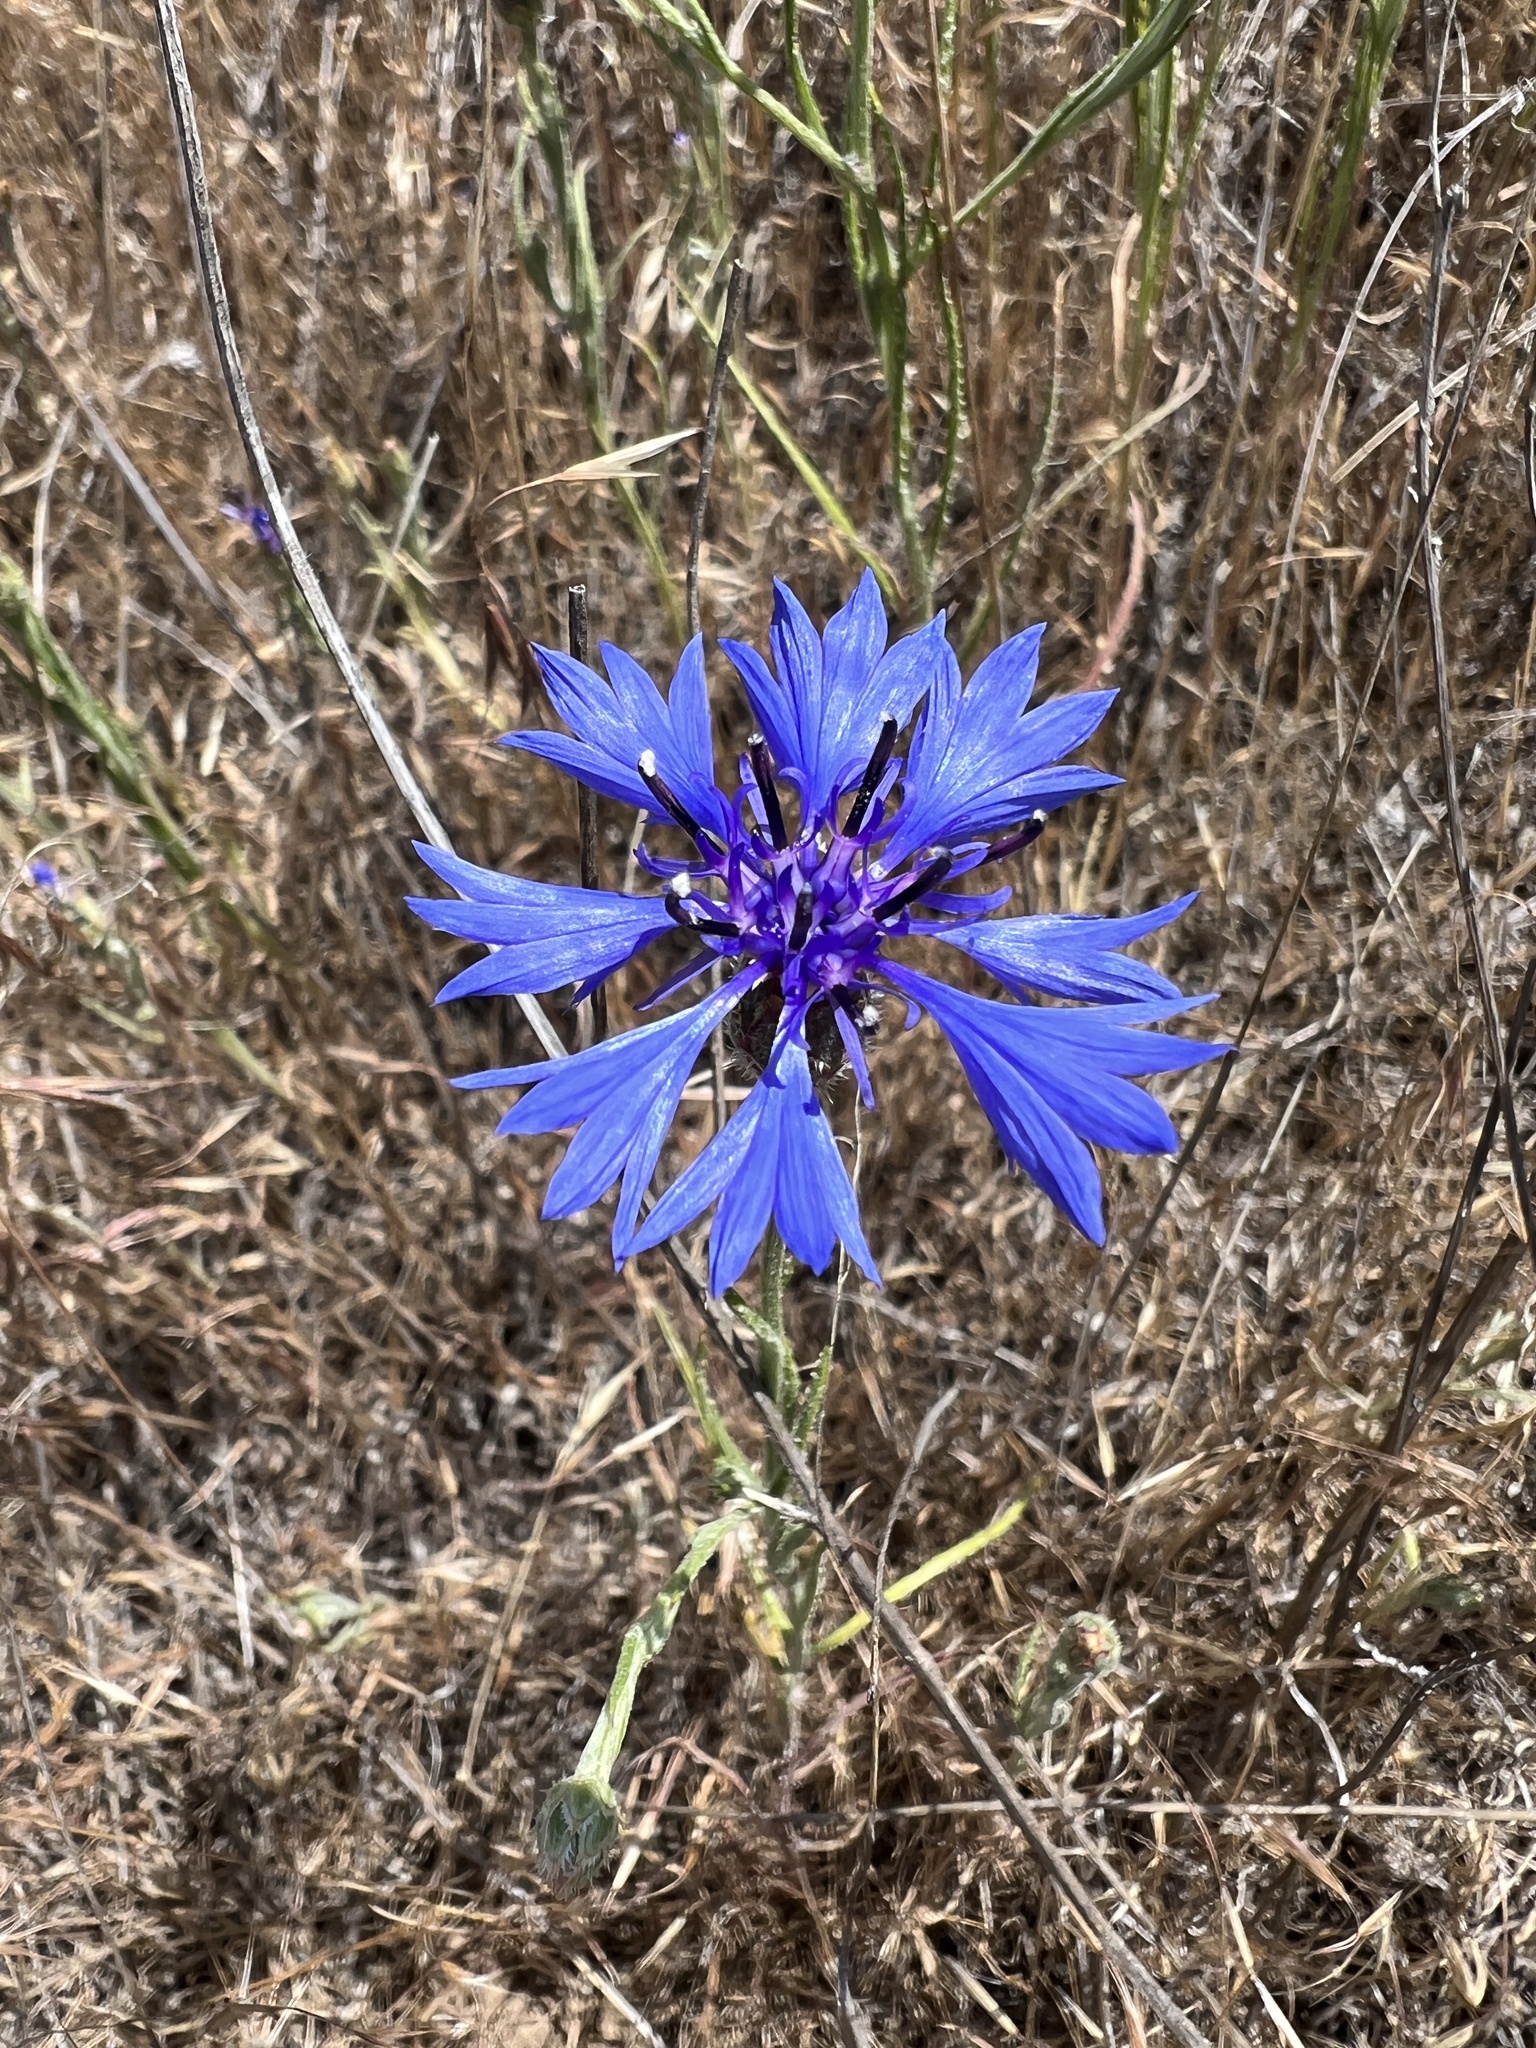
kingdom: Plantae
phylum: Tracheophyta
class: Magnoliopsida
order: Asterales
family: Asteraceae
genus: Centaurea
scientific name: Centaurea cyanus
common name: Cornflower
